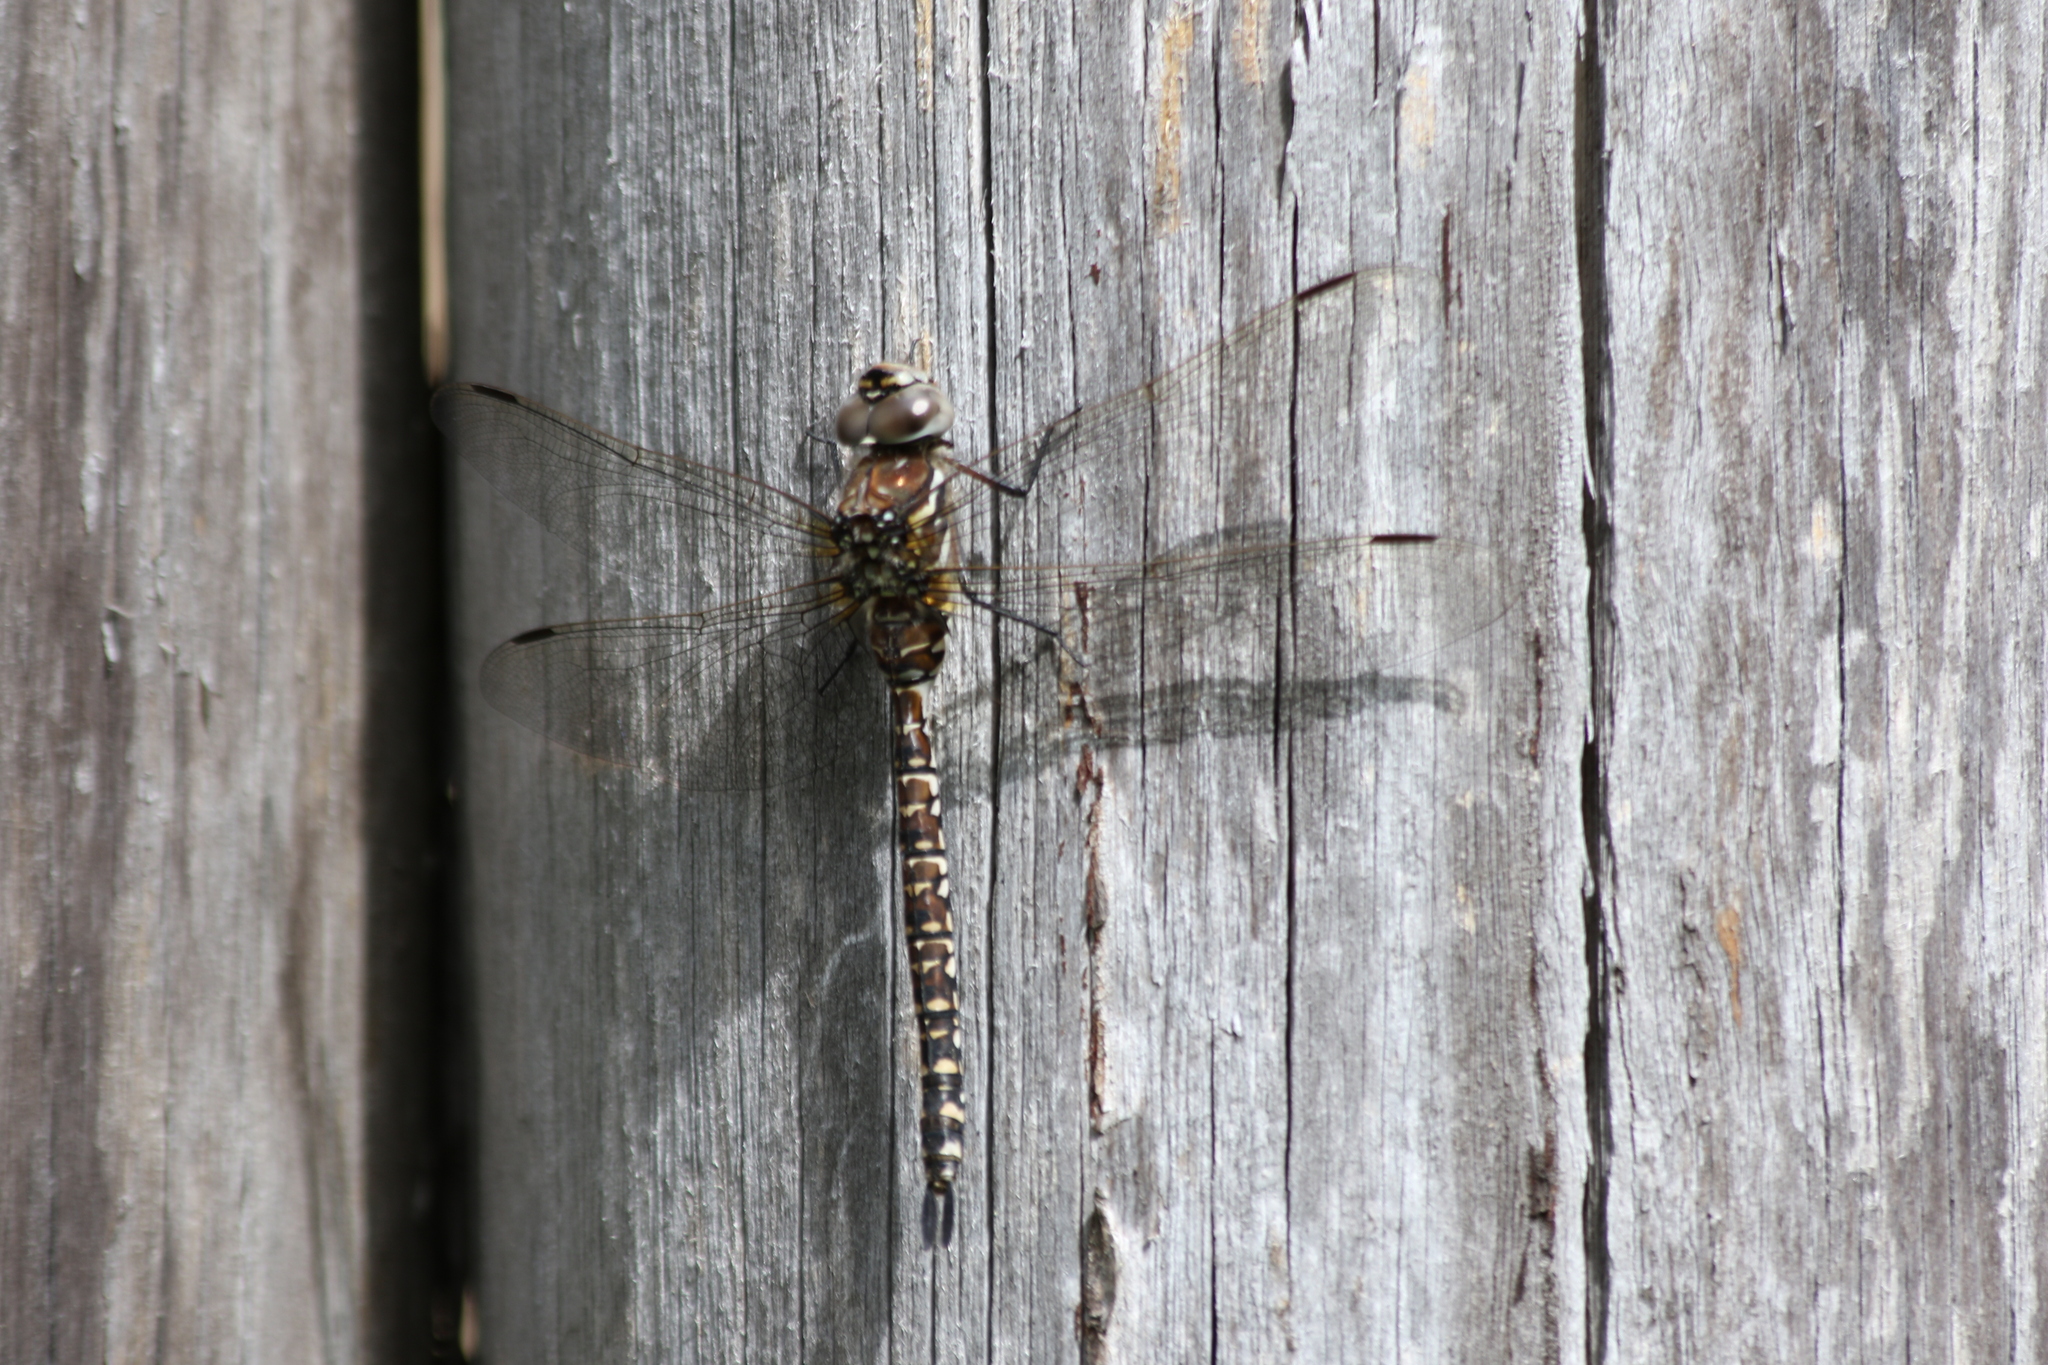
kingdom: Animalia
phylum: Arthropoda
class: Insecta
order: Odonata
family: Aeshnidae
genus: Aeshna
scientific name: Aeshna subarctica
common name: Subarctic darner
